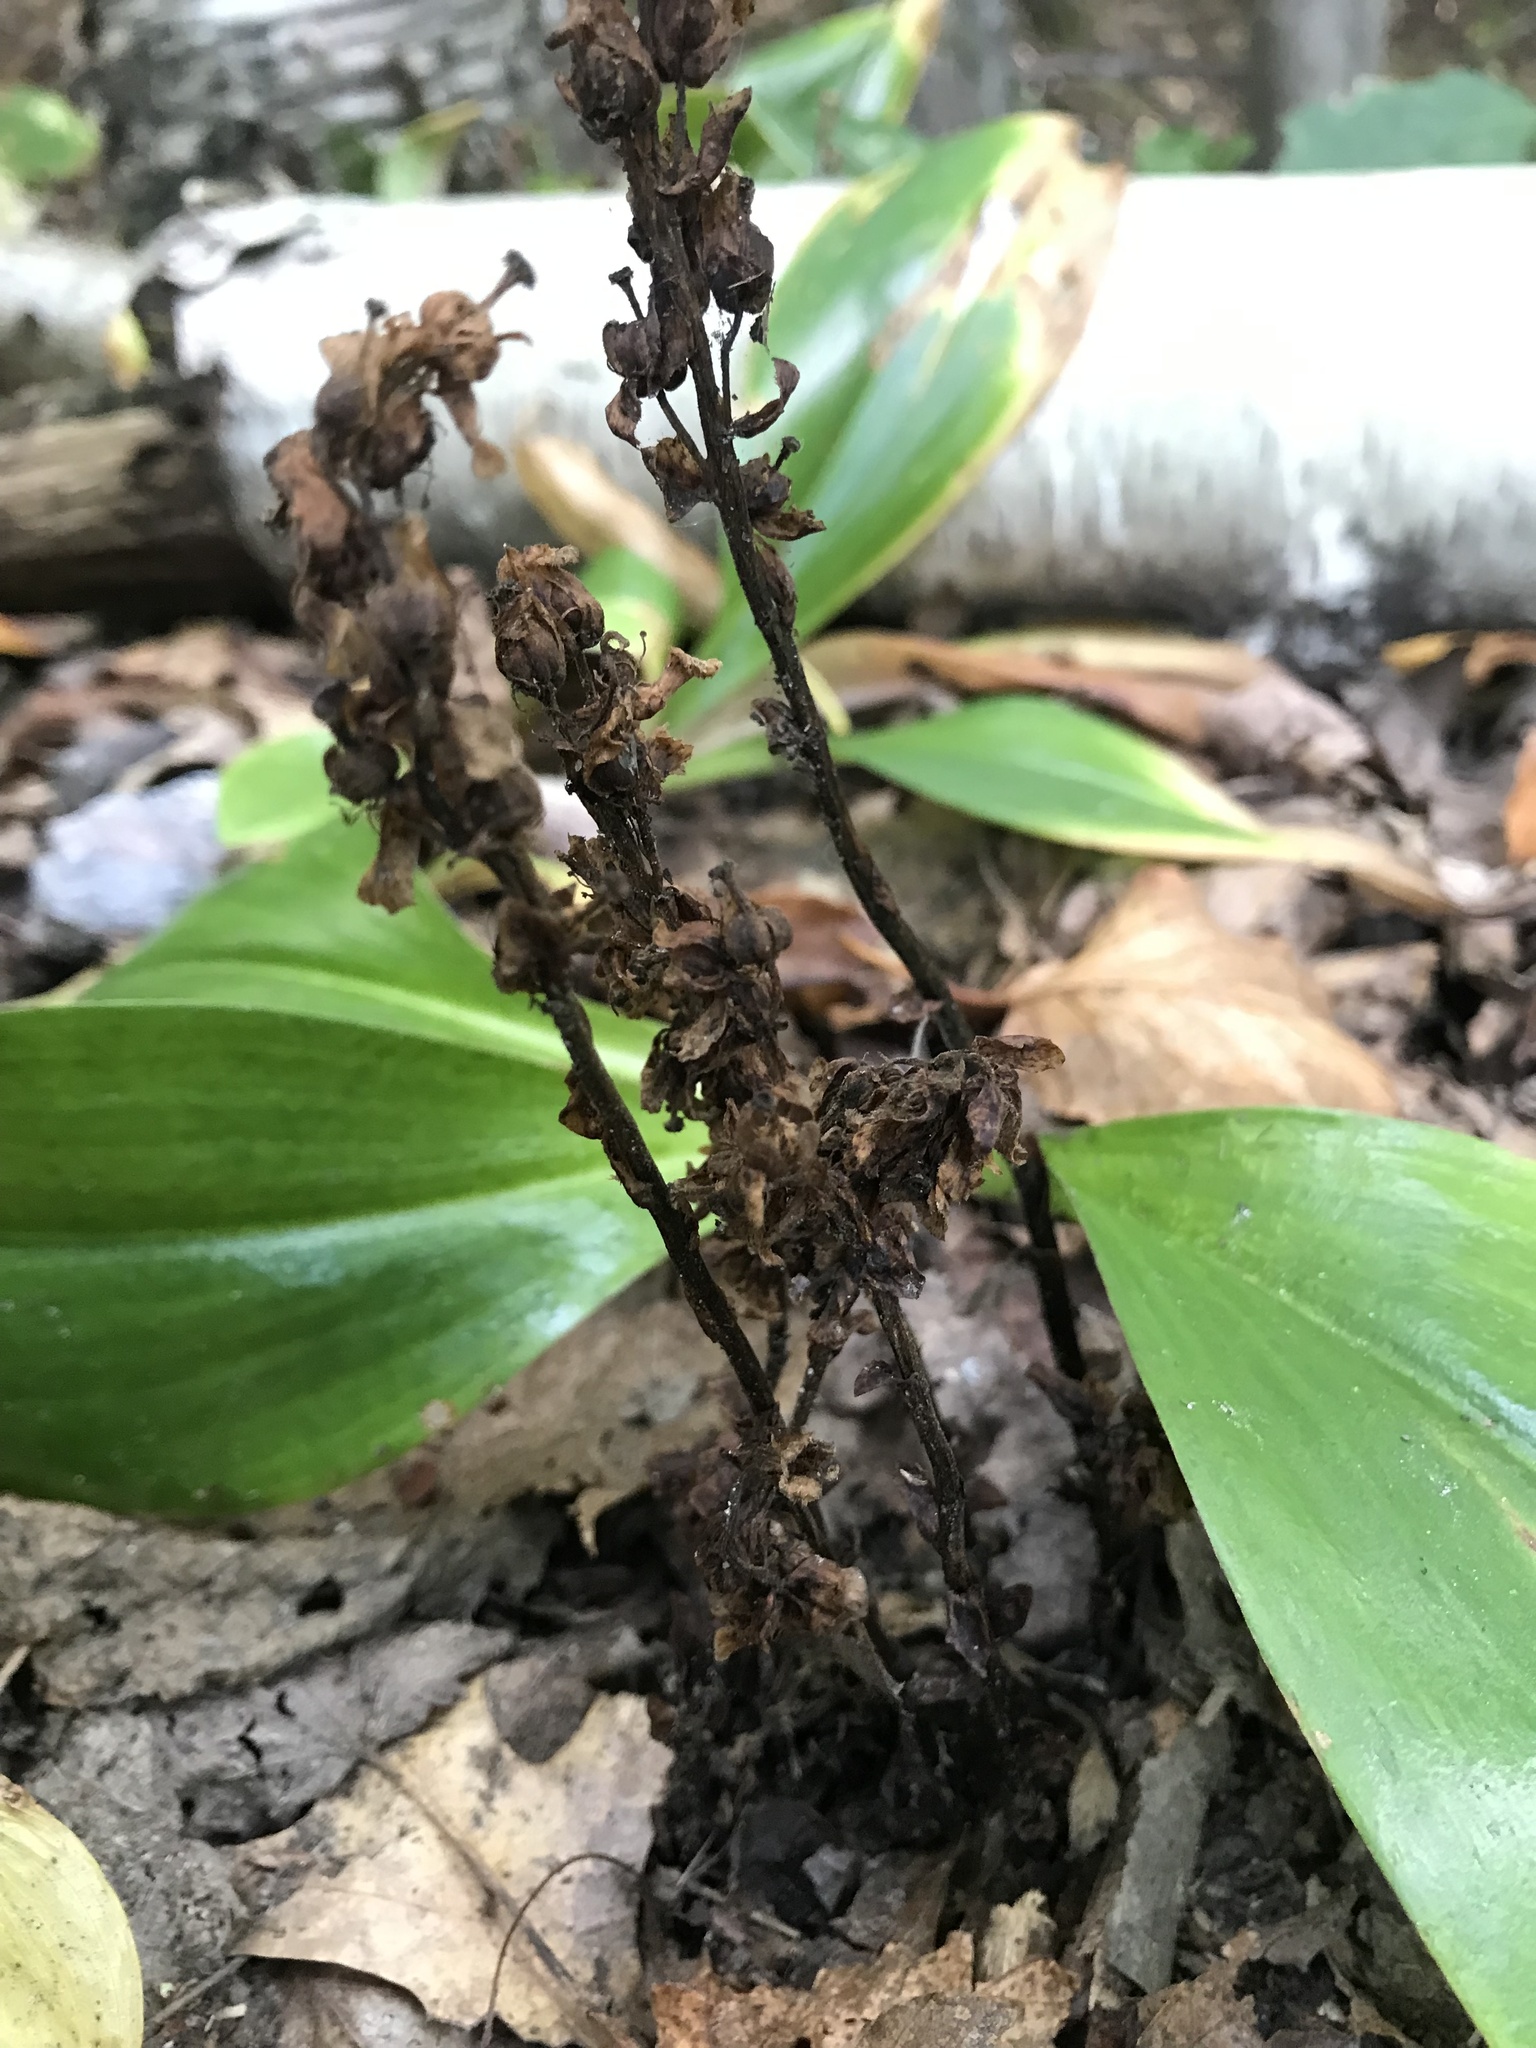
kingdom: Plantae
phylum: Tracheophyta
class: Magnoliopsida
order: Ericales
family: Ericaceae
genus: Hypopitys
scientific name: Hypopitys monotropa
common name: Yellow bird's-nest
